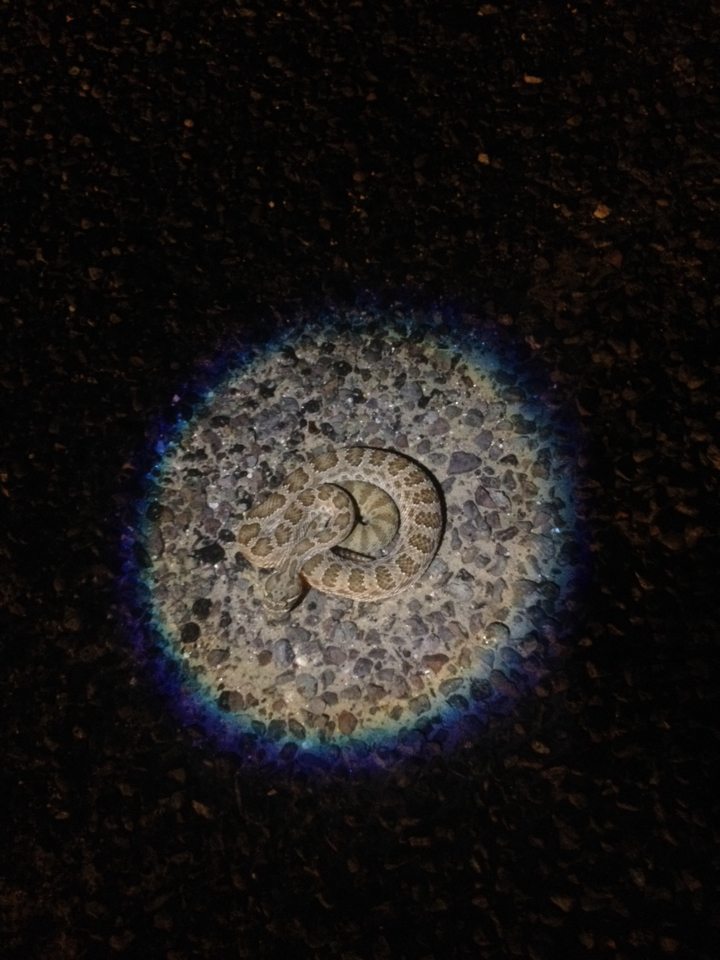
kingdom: Animalia
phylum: Chordata
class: Squamata
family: Viperidae
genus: Crotalus
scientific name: Crotalus viridis
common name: Prairie rattlesnake
